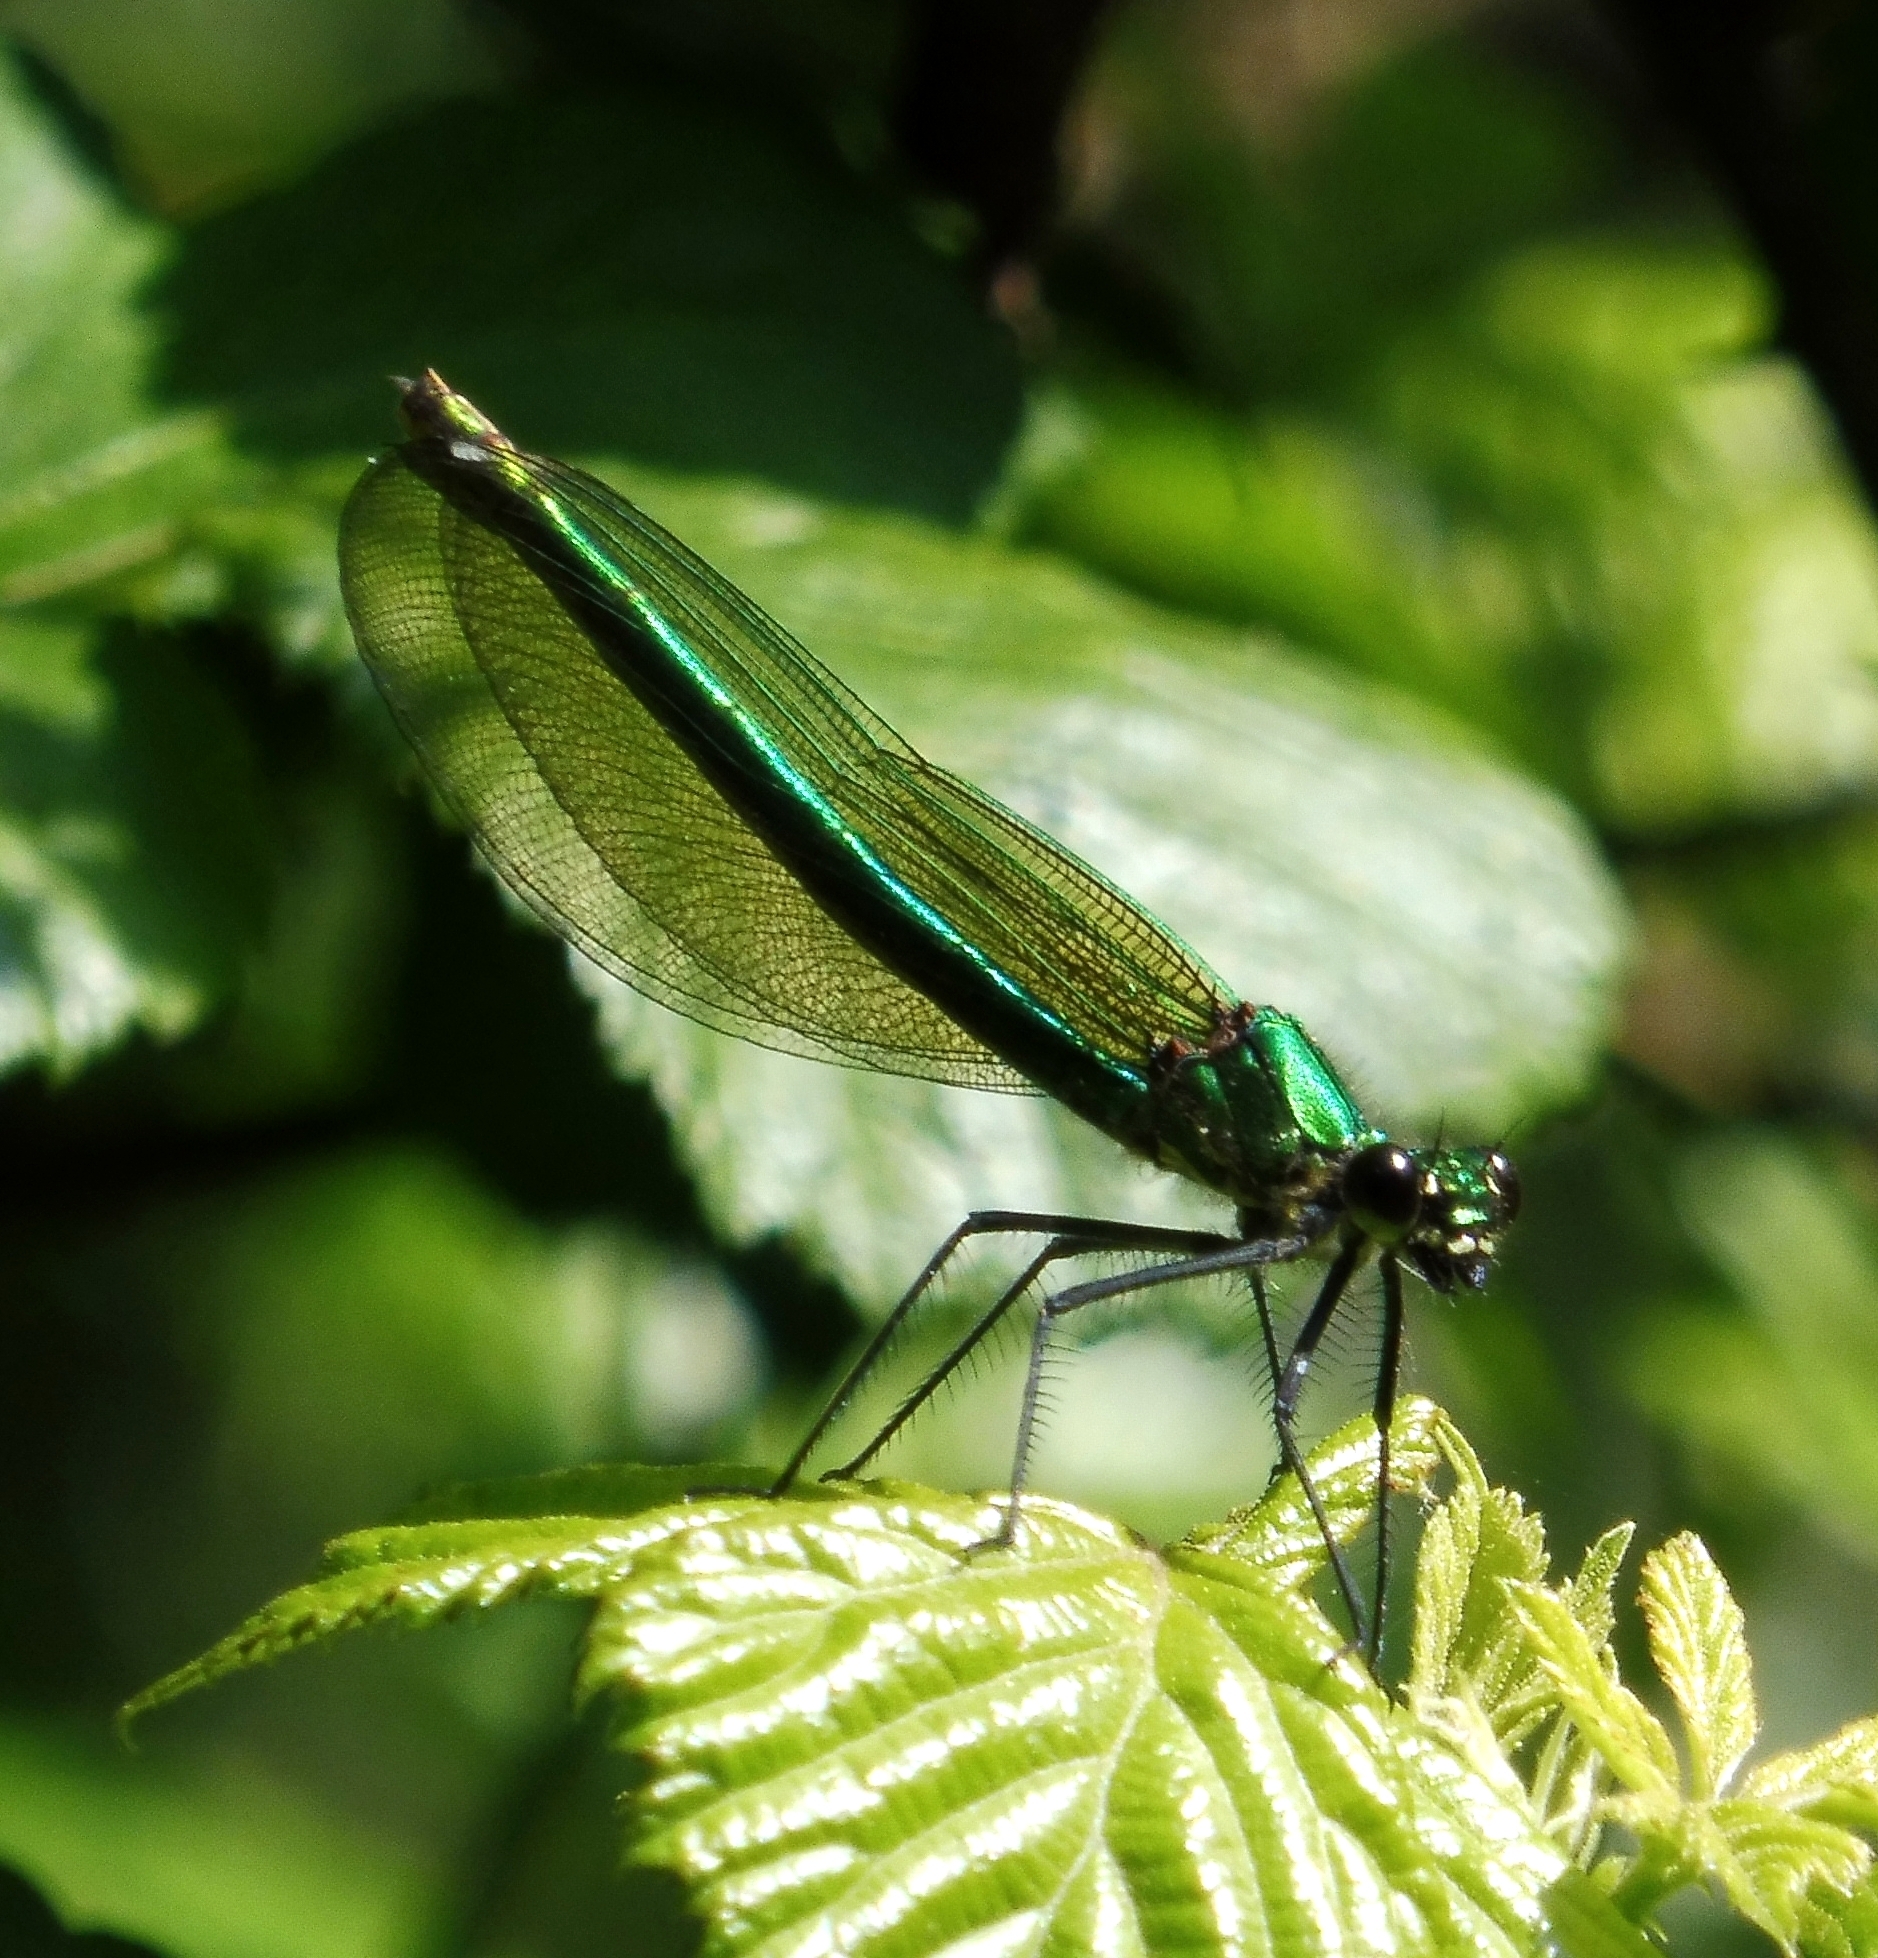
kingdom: Animalia
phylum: Arthropoda
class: Insecta
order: Odonata
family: Calopterygidae
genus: Calopteryx
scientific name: Calopteryx splendens
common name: Banded demoiselle
